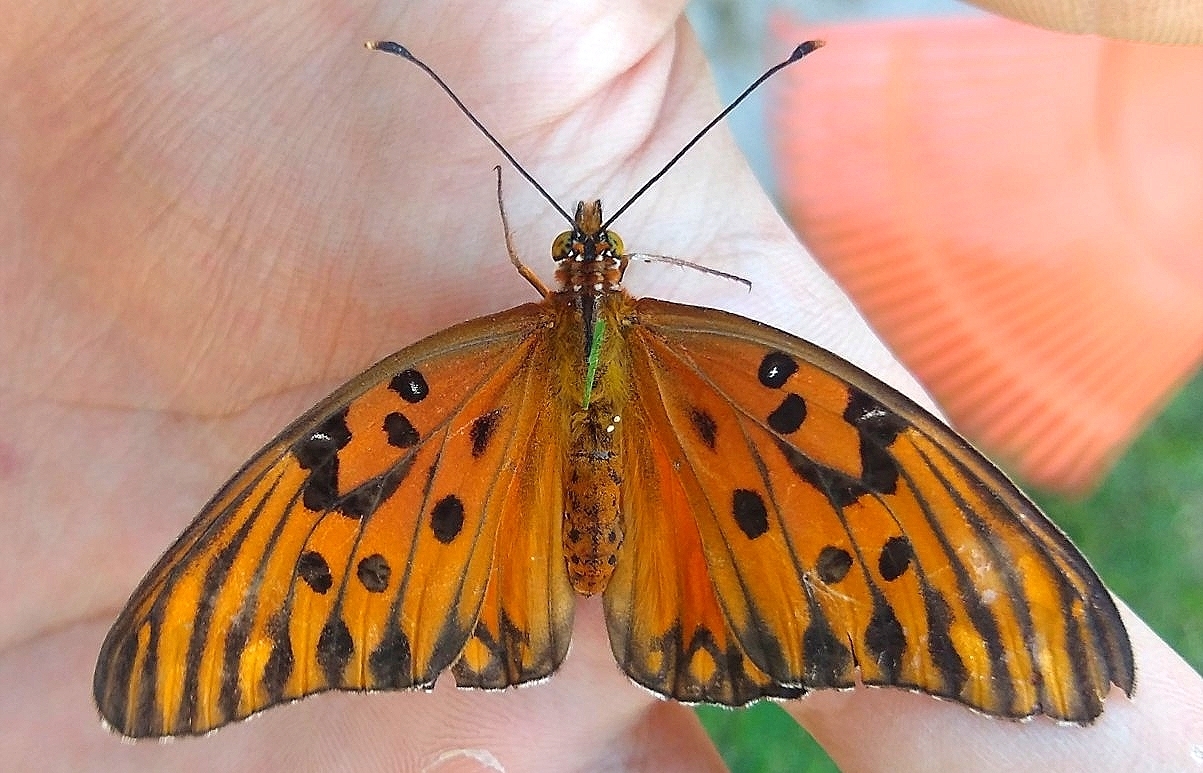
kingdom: Animalia
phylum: Arthropoda
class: Insecta
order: Lepidoptera
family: Nymphalidae
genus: Dione
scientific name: Dione vanillae
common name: Gulf fritillary
